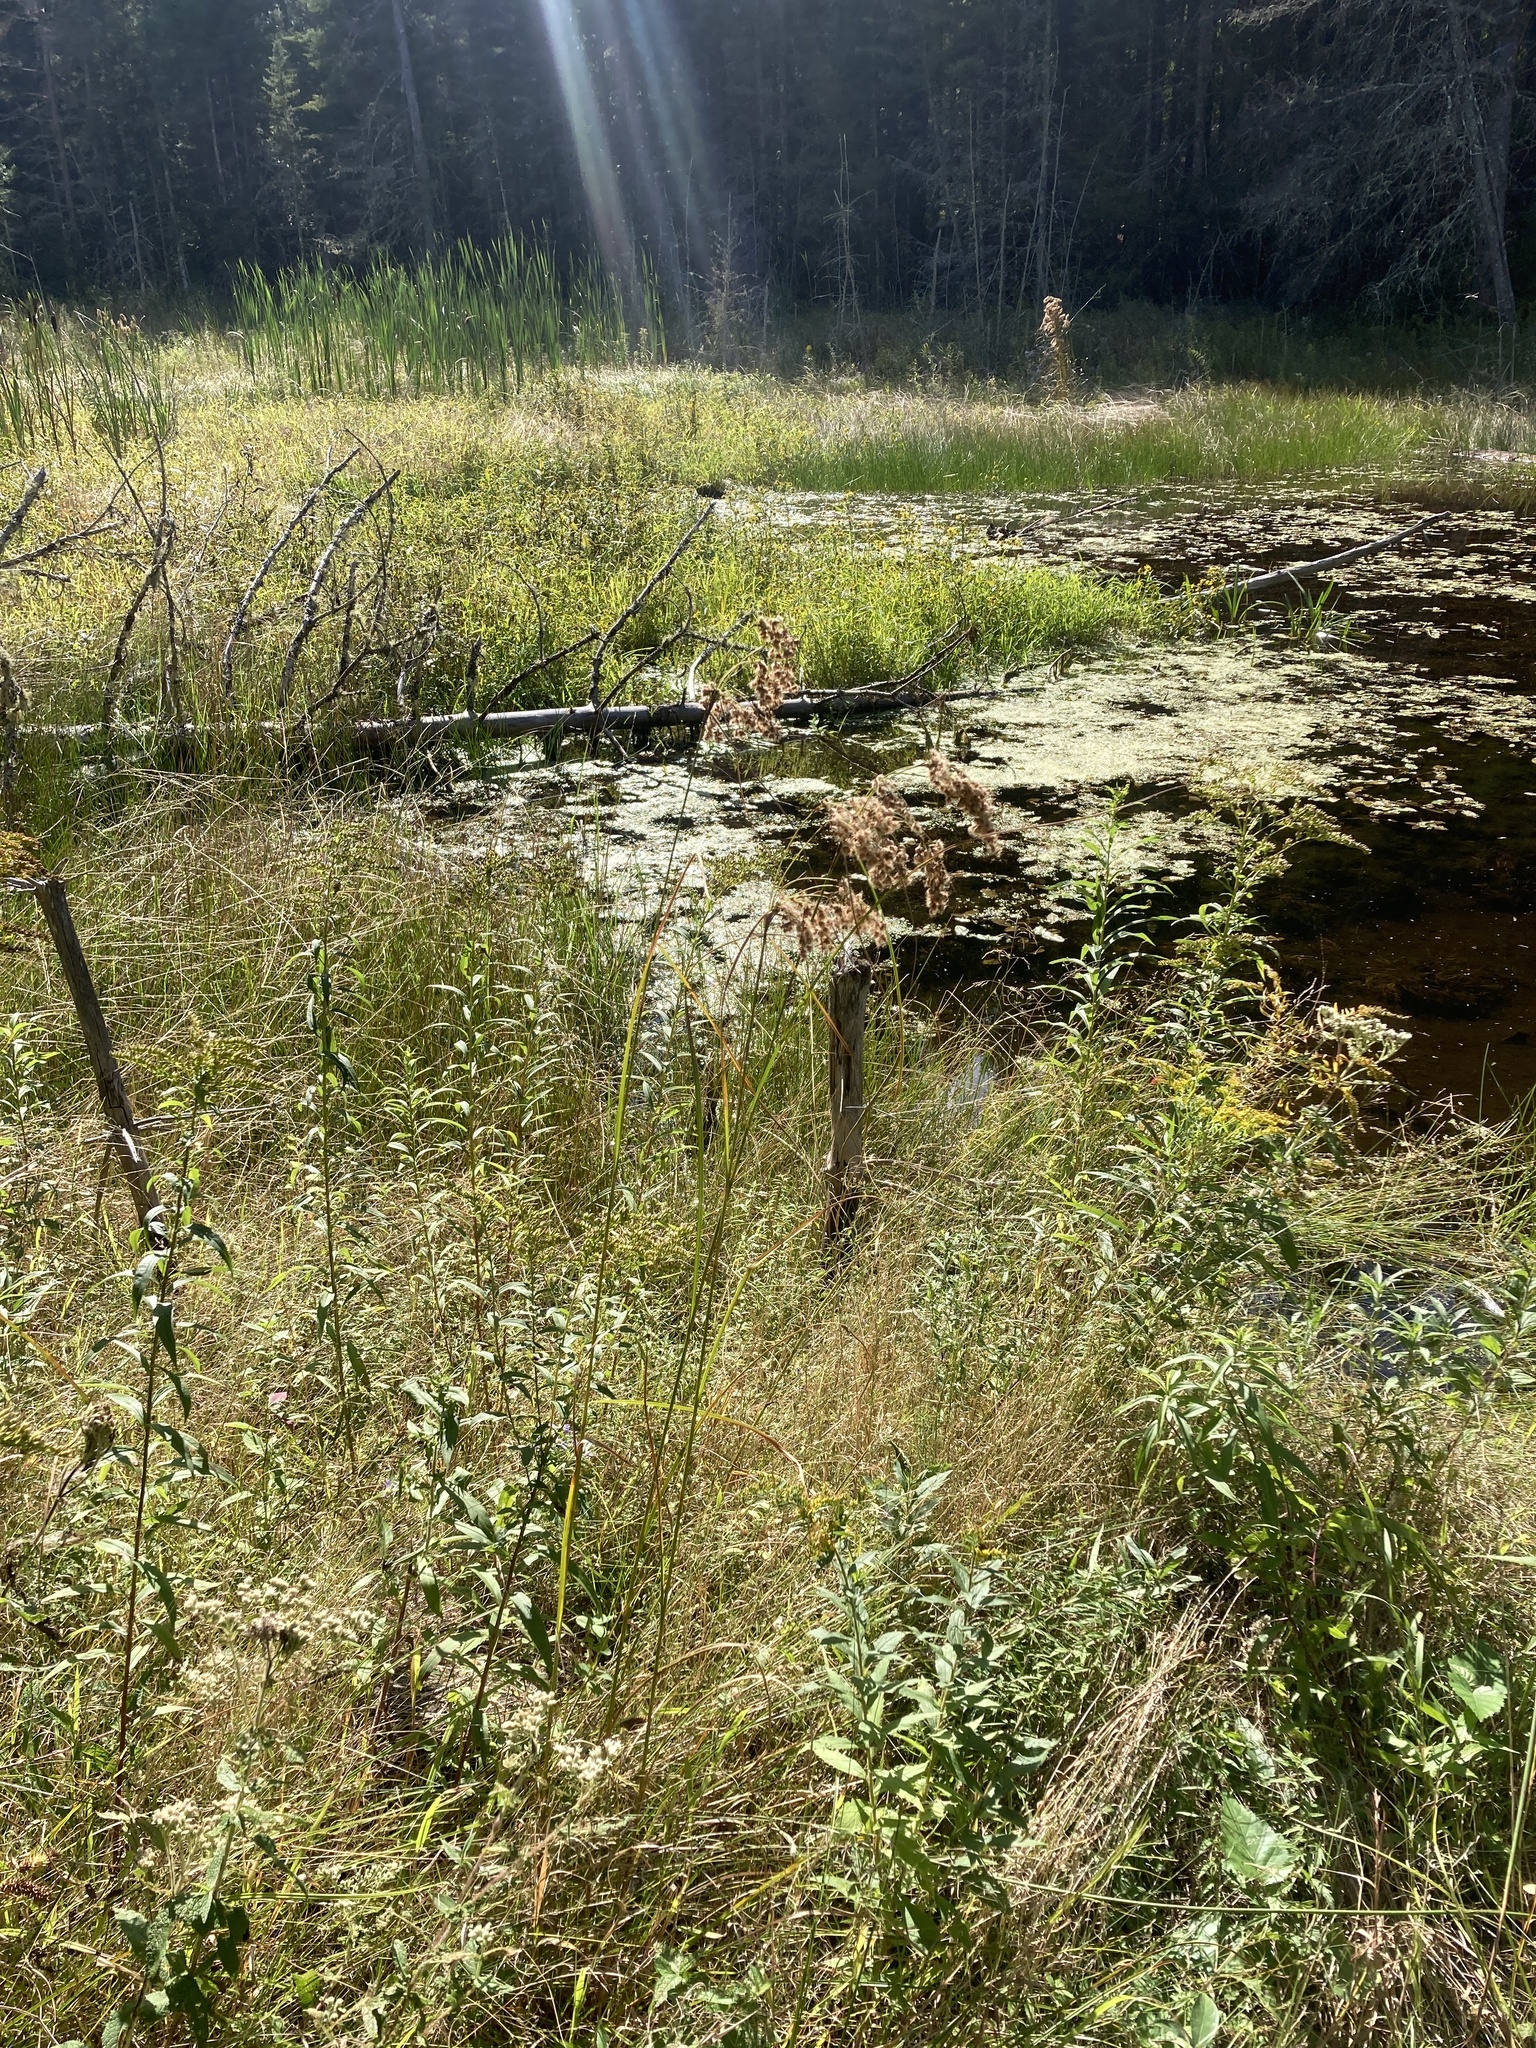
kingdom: Plantae
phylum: Tracheophyta
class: Liliopsida
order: Poales
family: Cyperaceae
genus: Scirpus
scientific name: Scirpus cyperinus
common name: Black-sheathed bulrush
